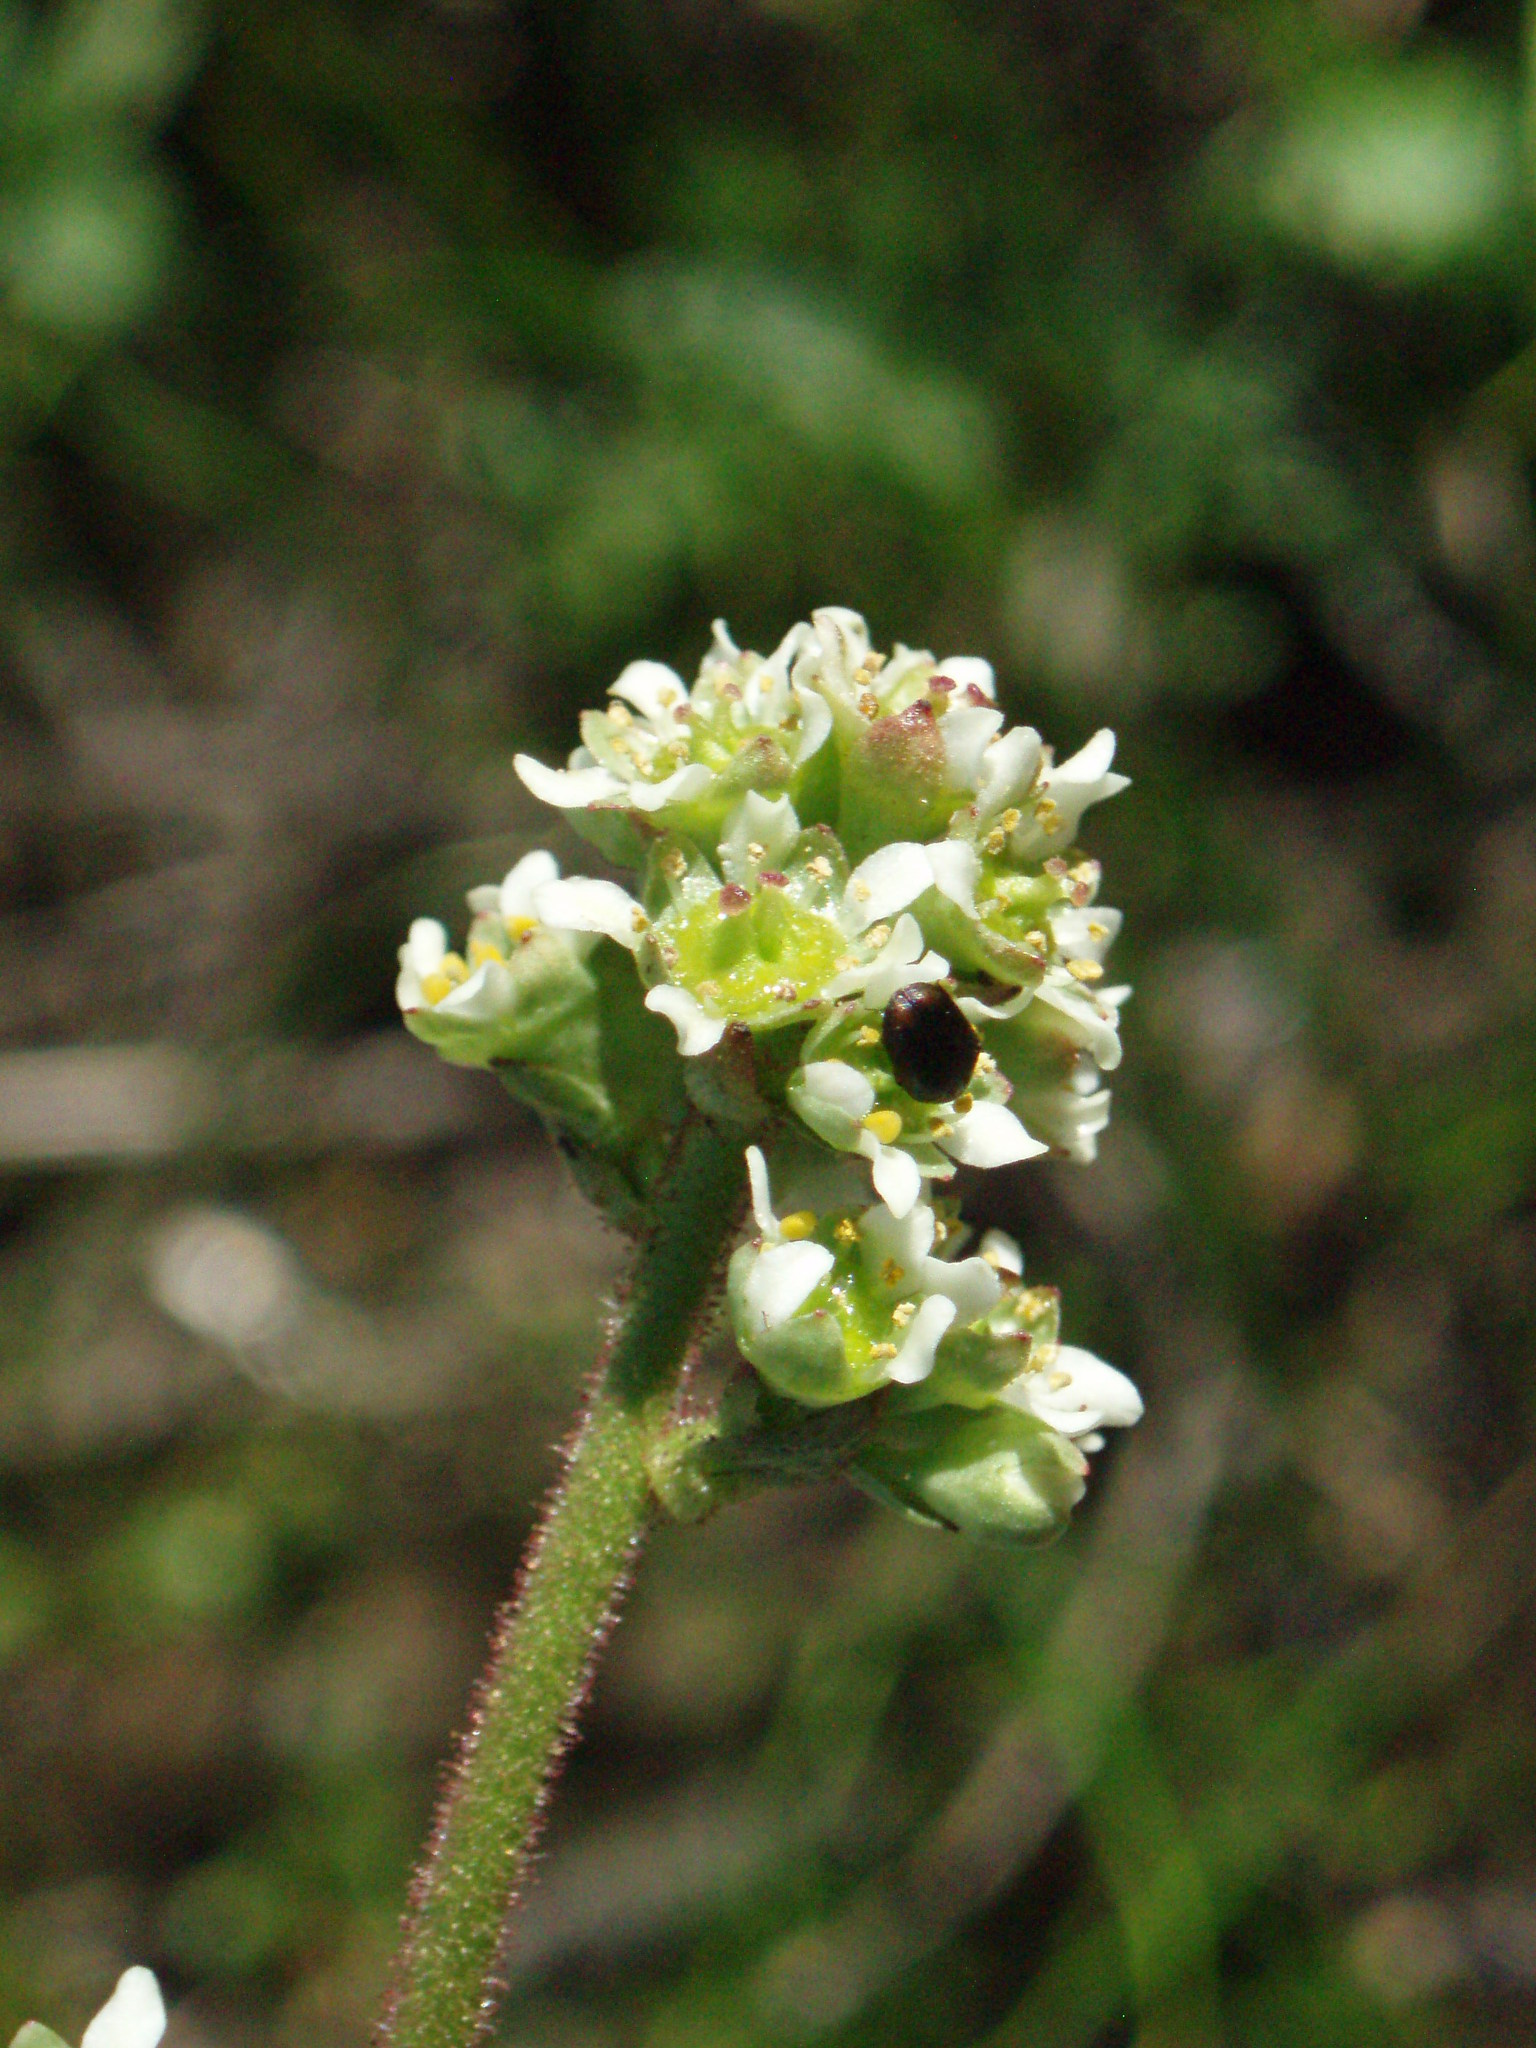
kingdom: Plantae
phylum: Tracheophyta
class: Magnoliopsida
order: Saxifragales
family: Saxifragaceae
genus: Micranthes
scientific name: Micranthes oregana
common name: Bog saxifrage
